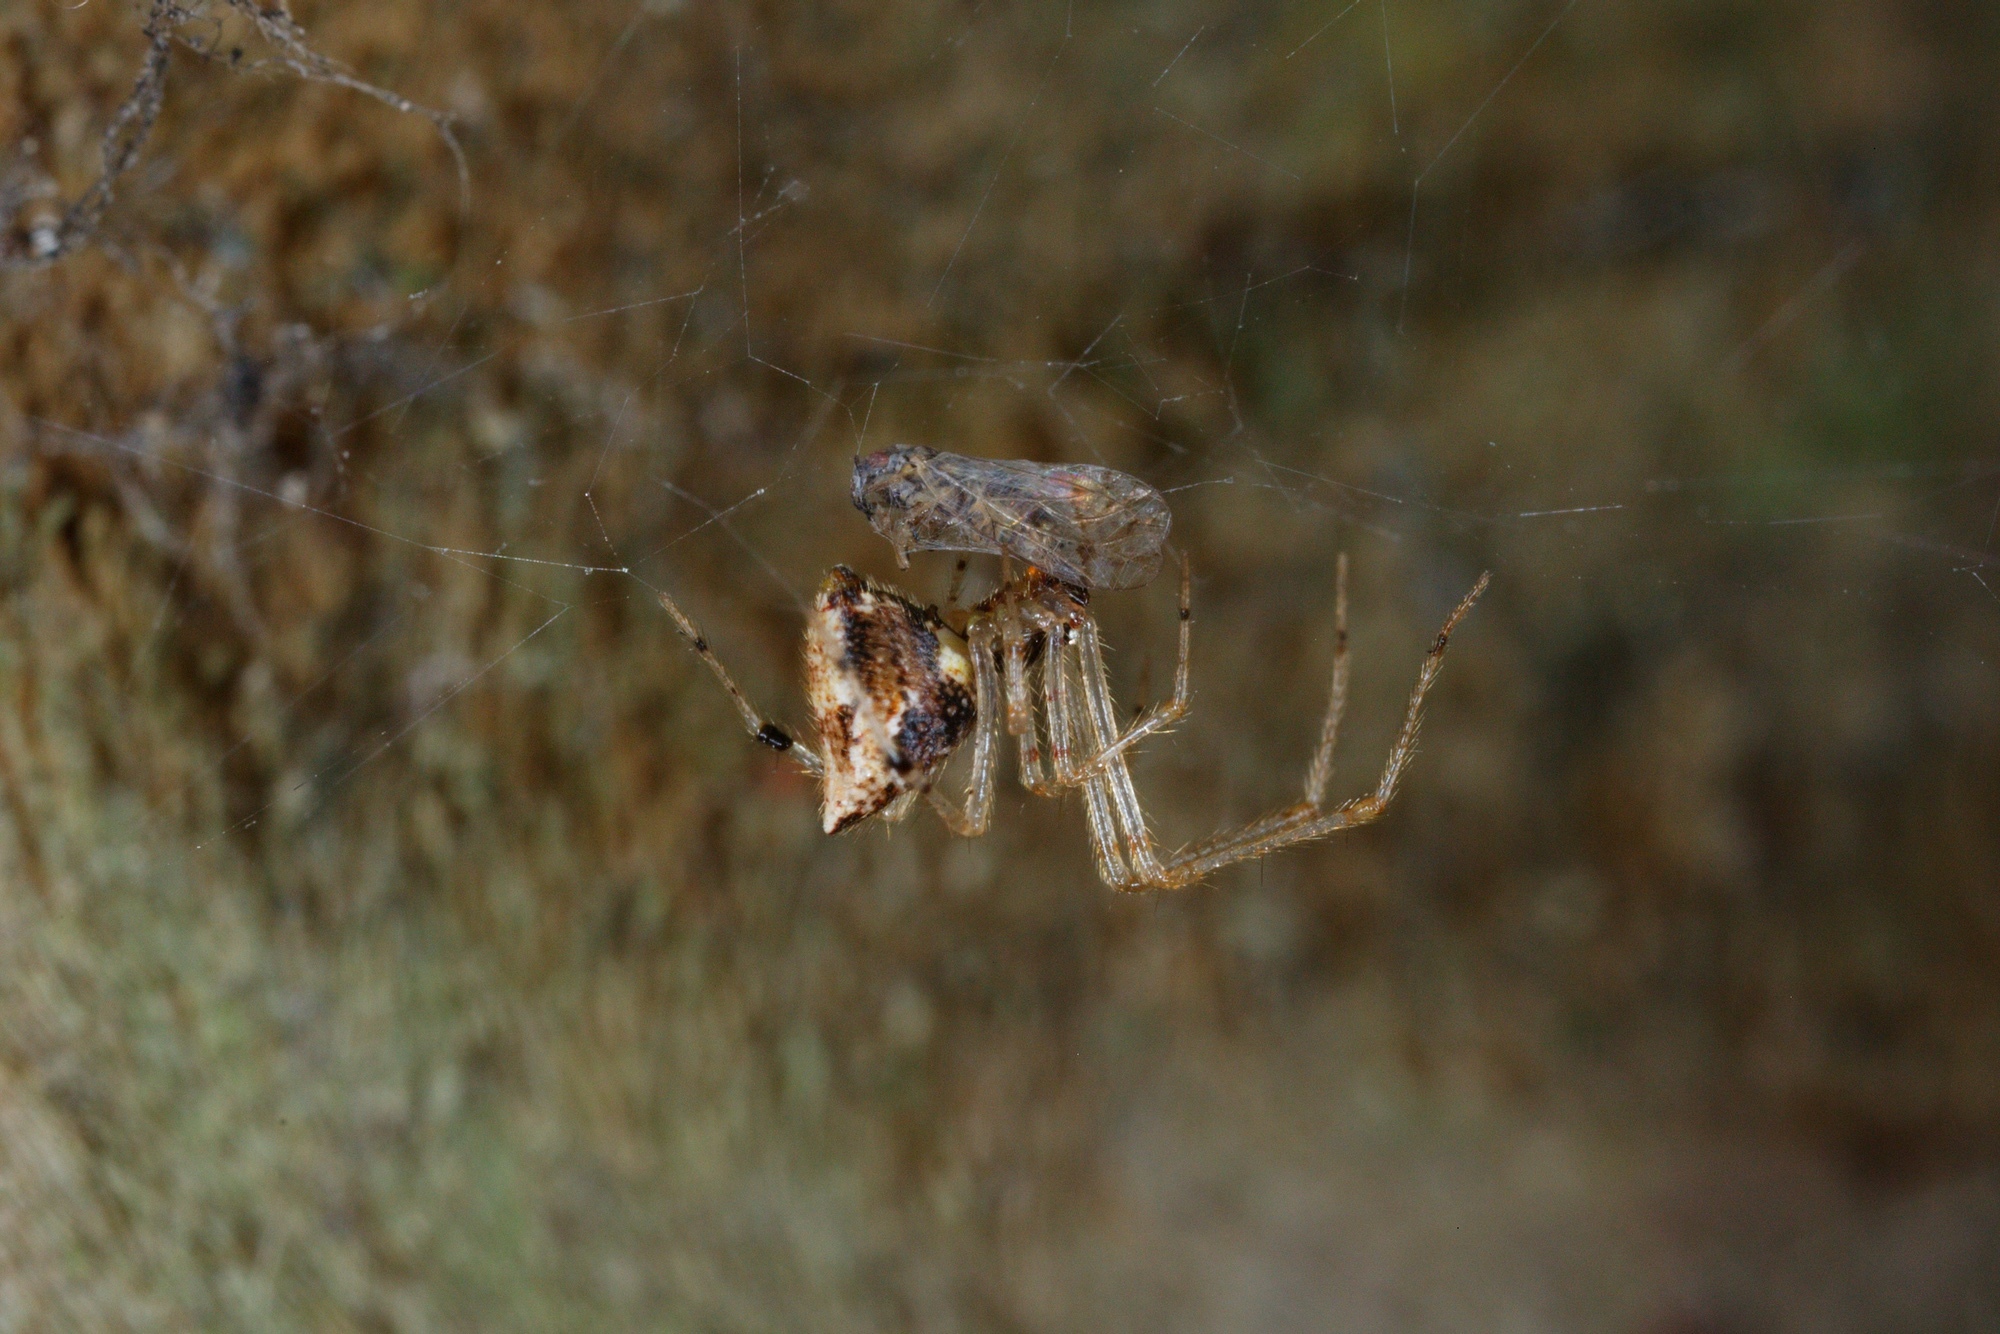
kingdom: Animalia
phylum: Arthropoda
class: Arachnida
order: Araneae
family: Theridiidae
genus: Cryptachaea
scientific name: Cryptachaea meraukensis
